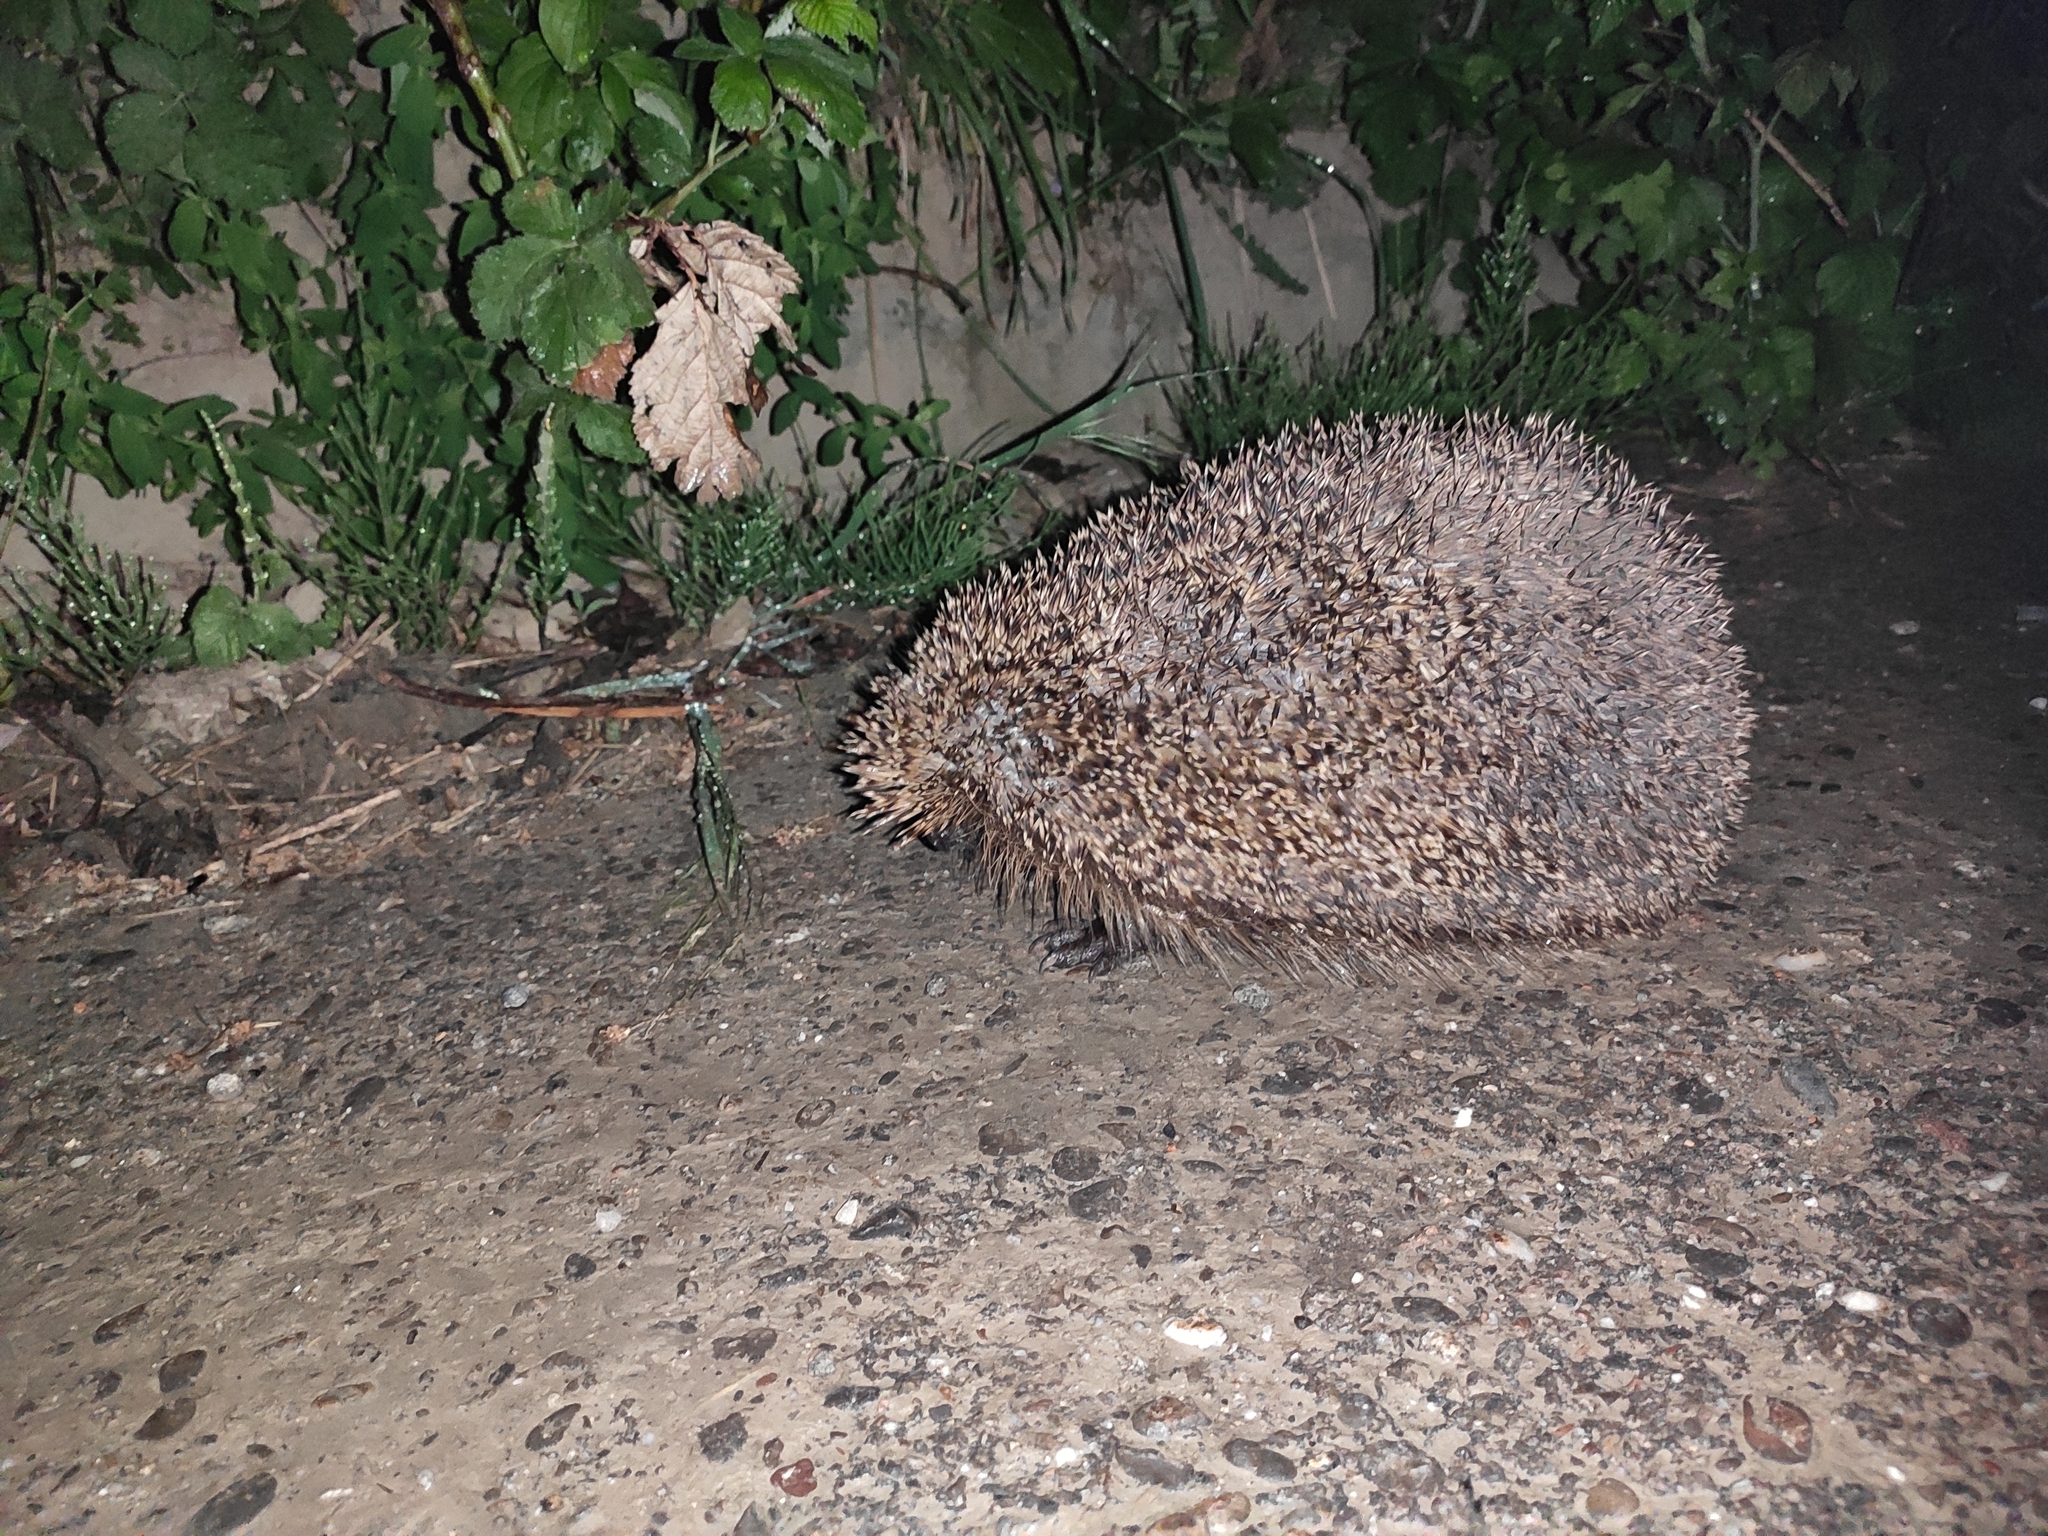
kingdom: Animalia
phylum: Chordata
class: Mammalia
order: Erinaceomorpha
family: Erinaceidae
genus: Erinaceus
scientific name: Erinaceus europaeus
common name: West european hedgehog
